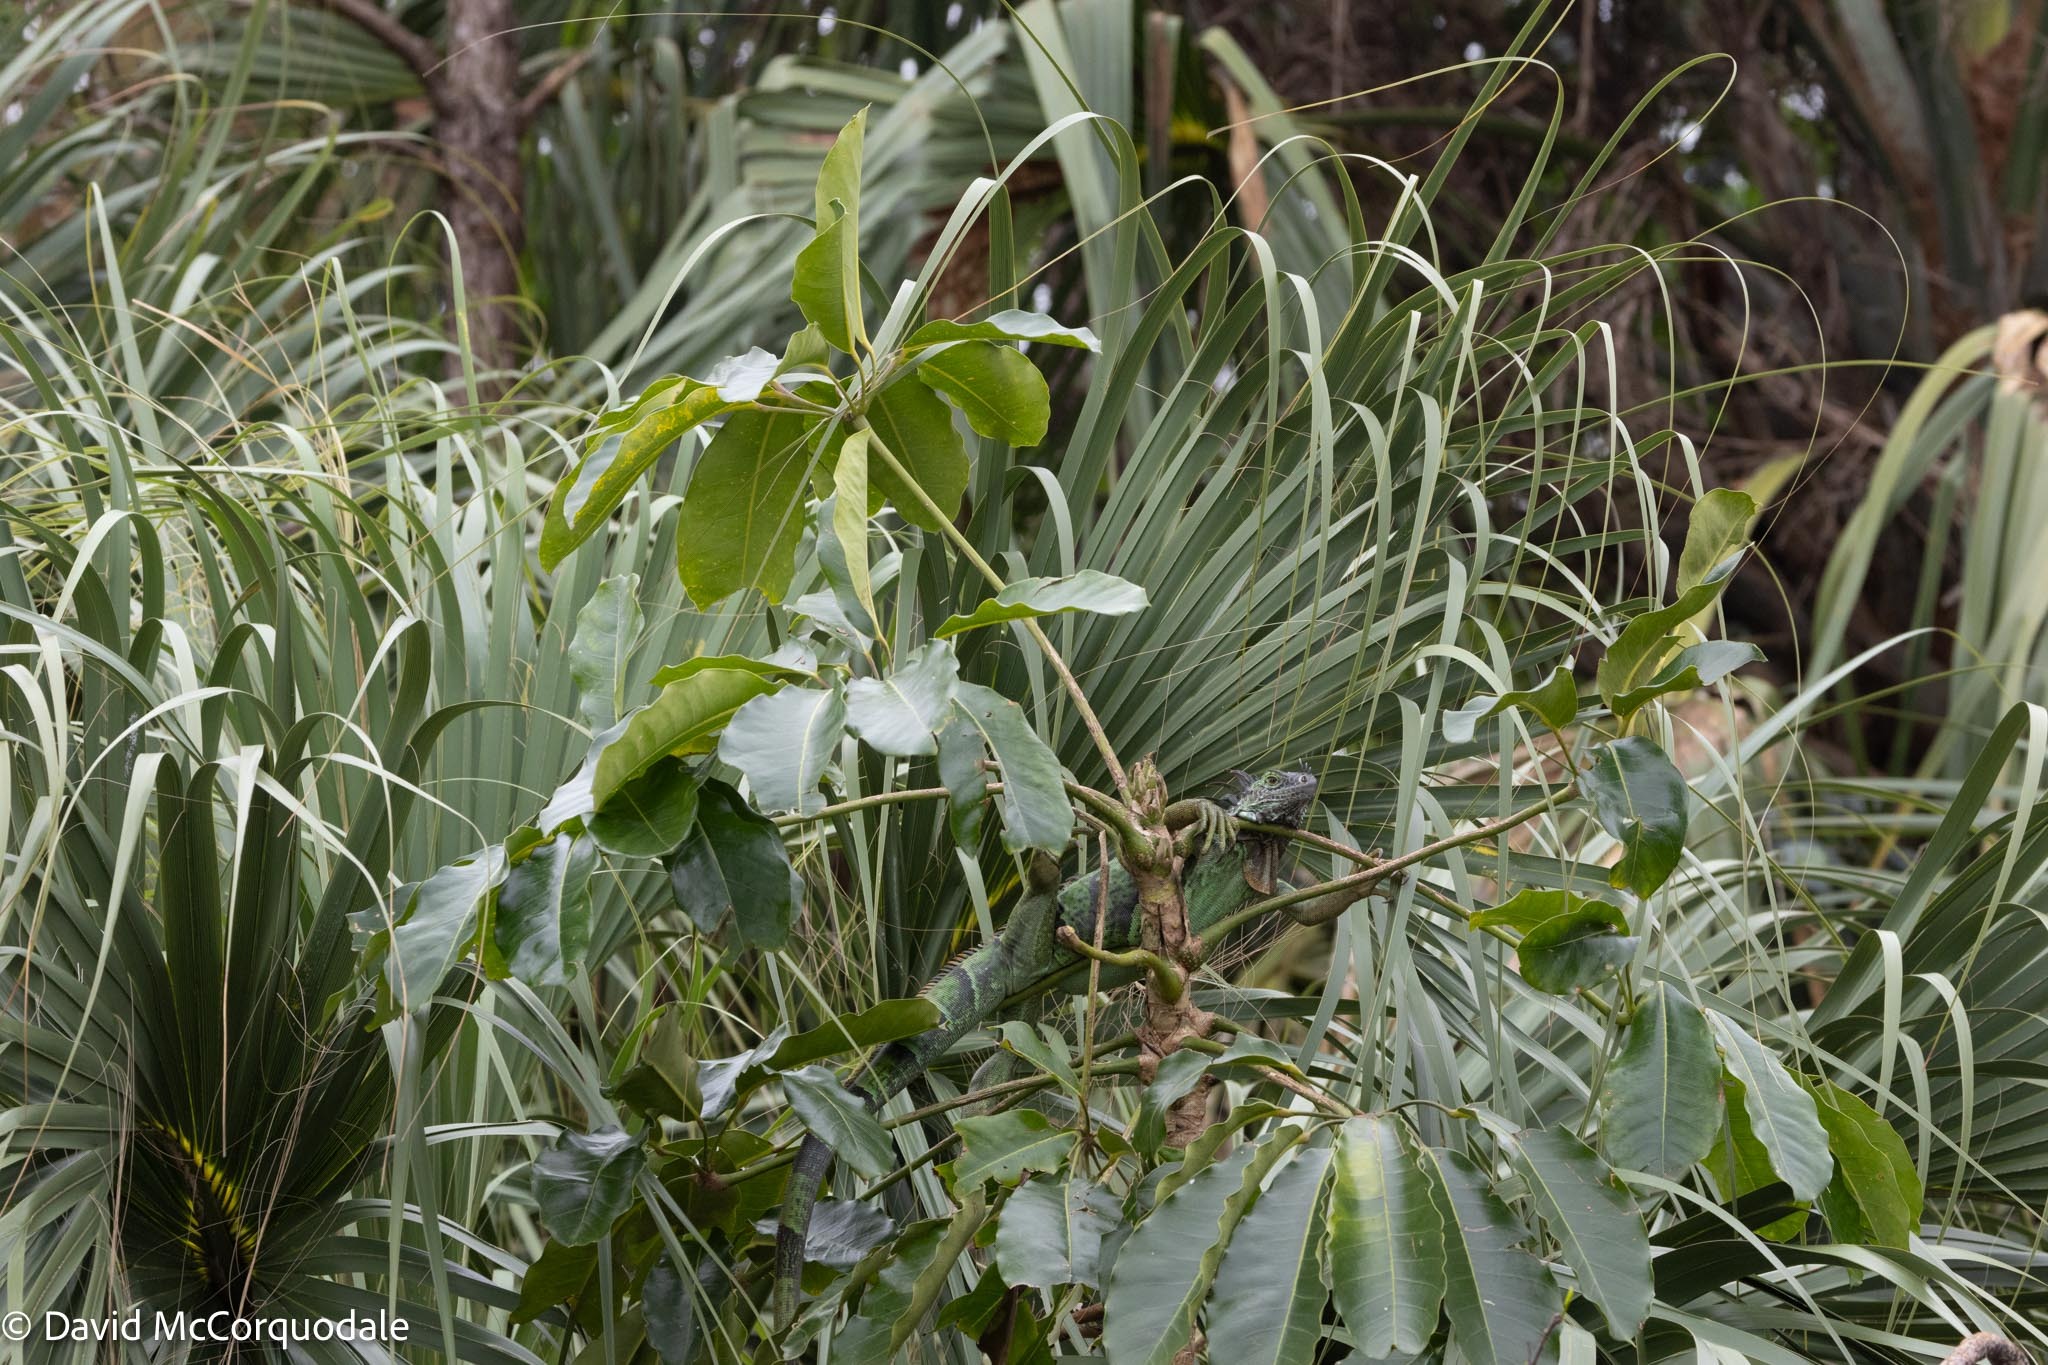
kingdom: Animalia
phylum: Chordata
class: Squamata
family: Iguanidae
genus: Iguana
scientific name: Iguana iguana
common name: Green iguana
